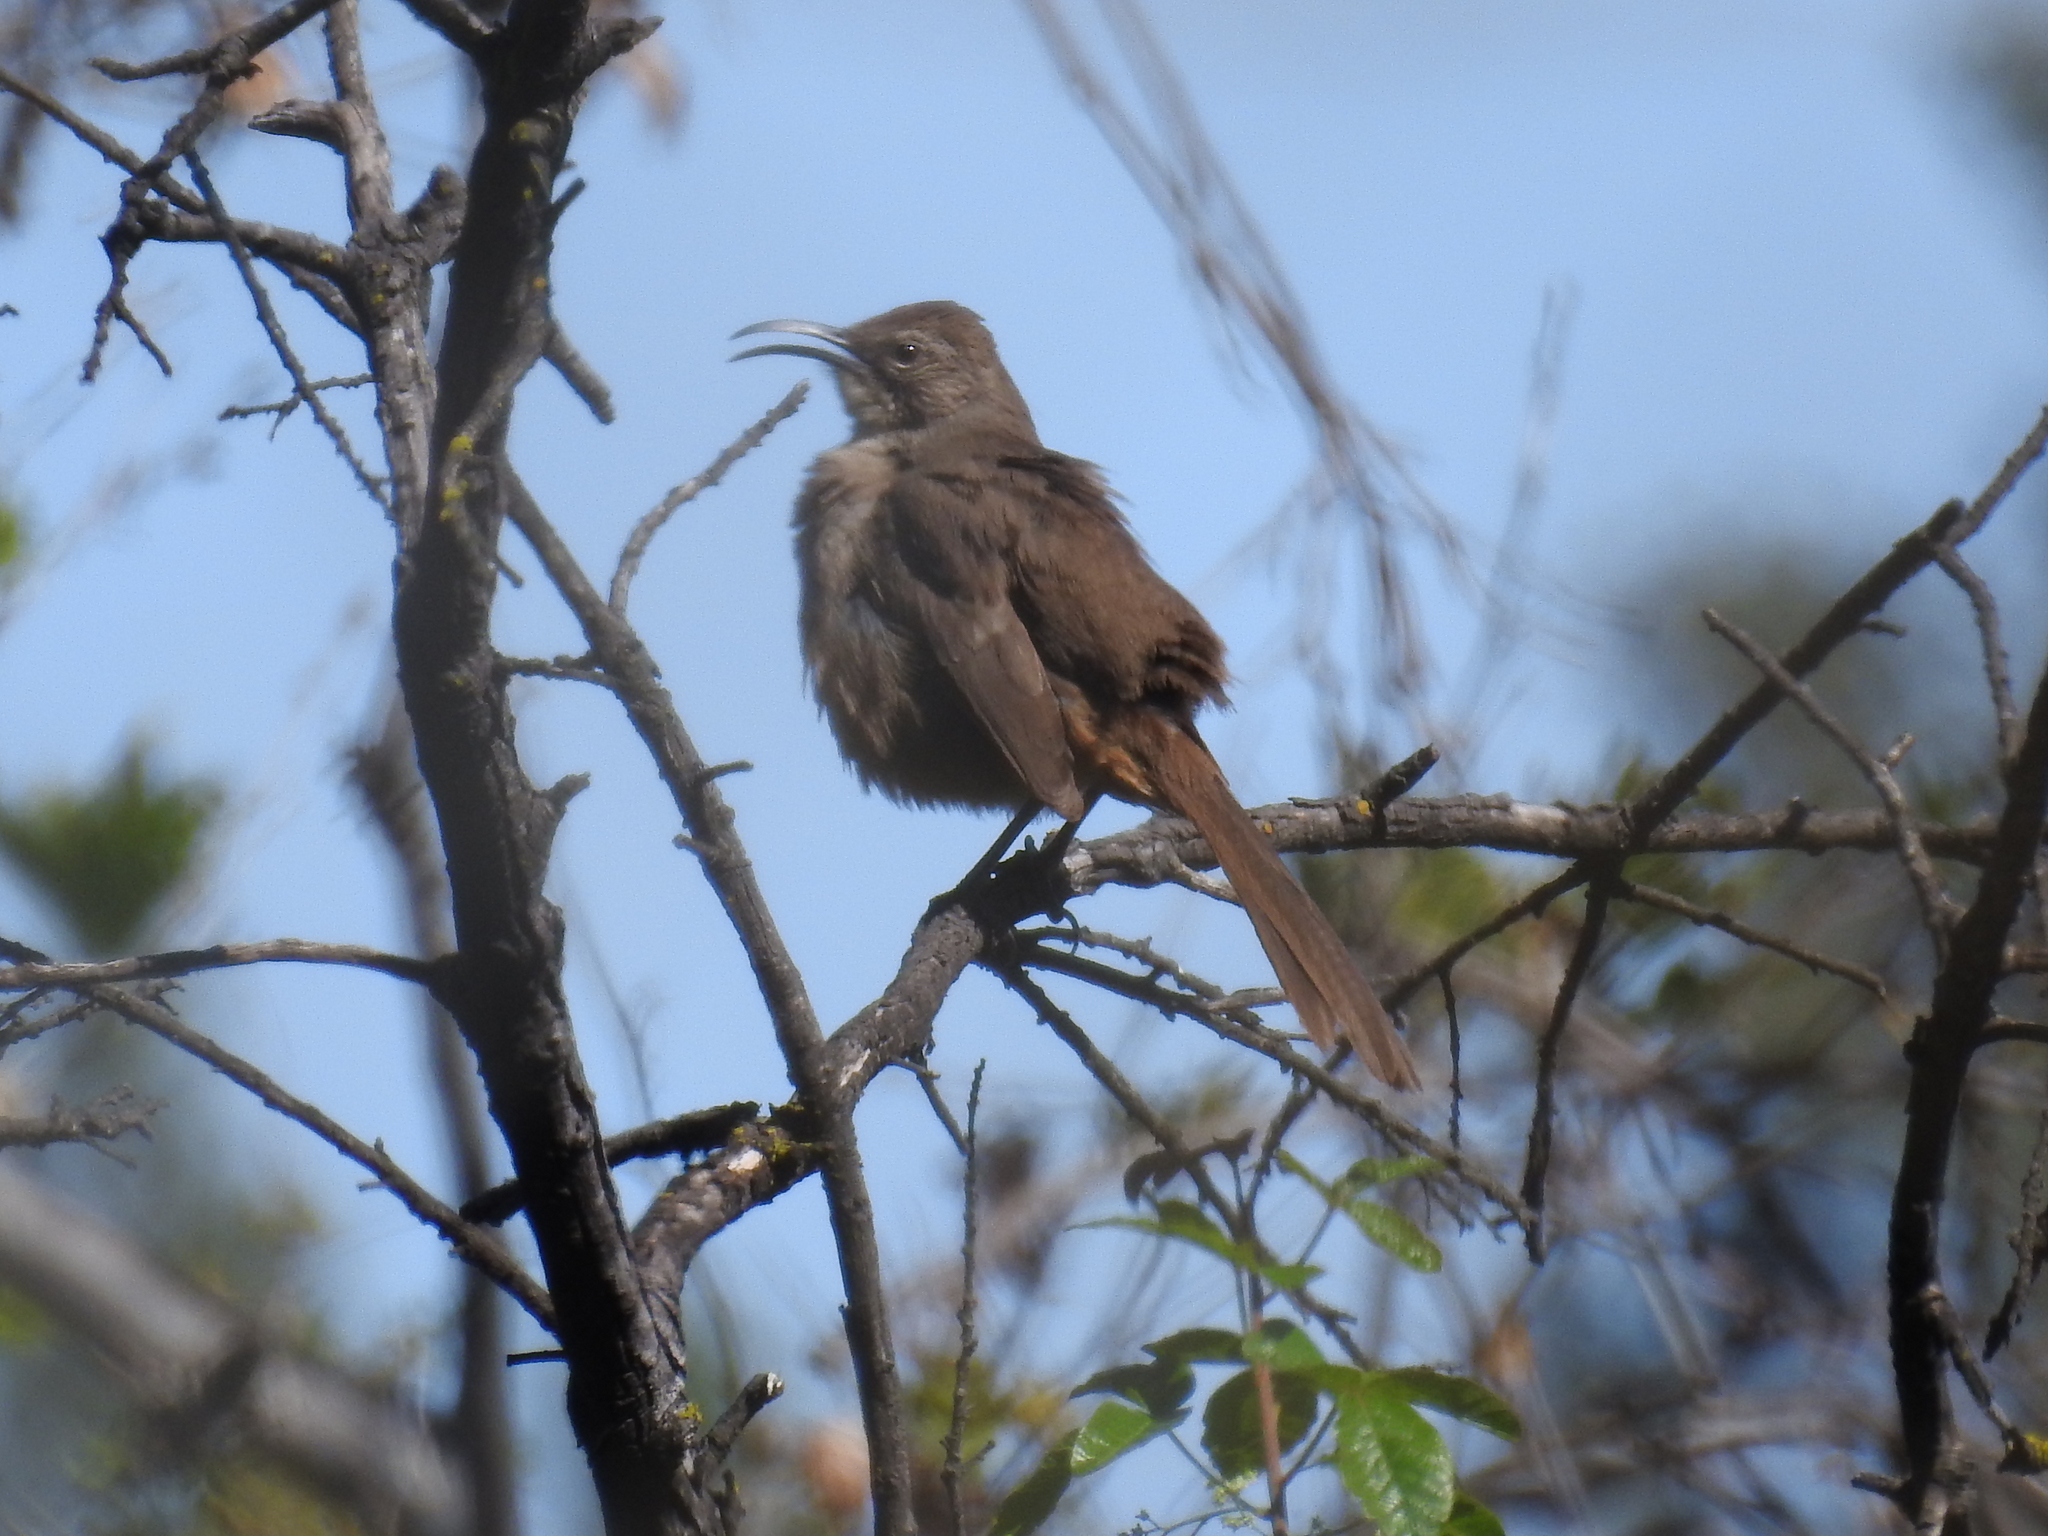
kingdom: Animalia
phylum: Chordata
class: Aves
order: Passeriformes
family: Mimidae
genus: Toxostoma
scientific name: Toxostoma redivivum
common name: California thrasher
